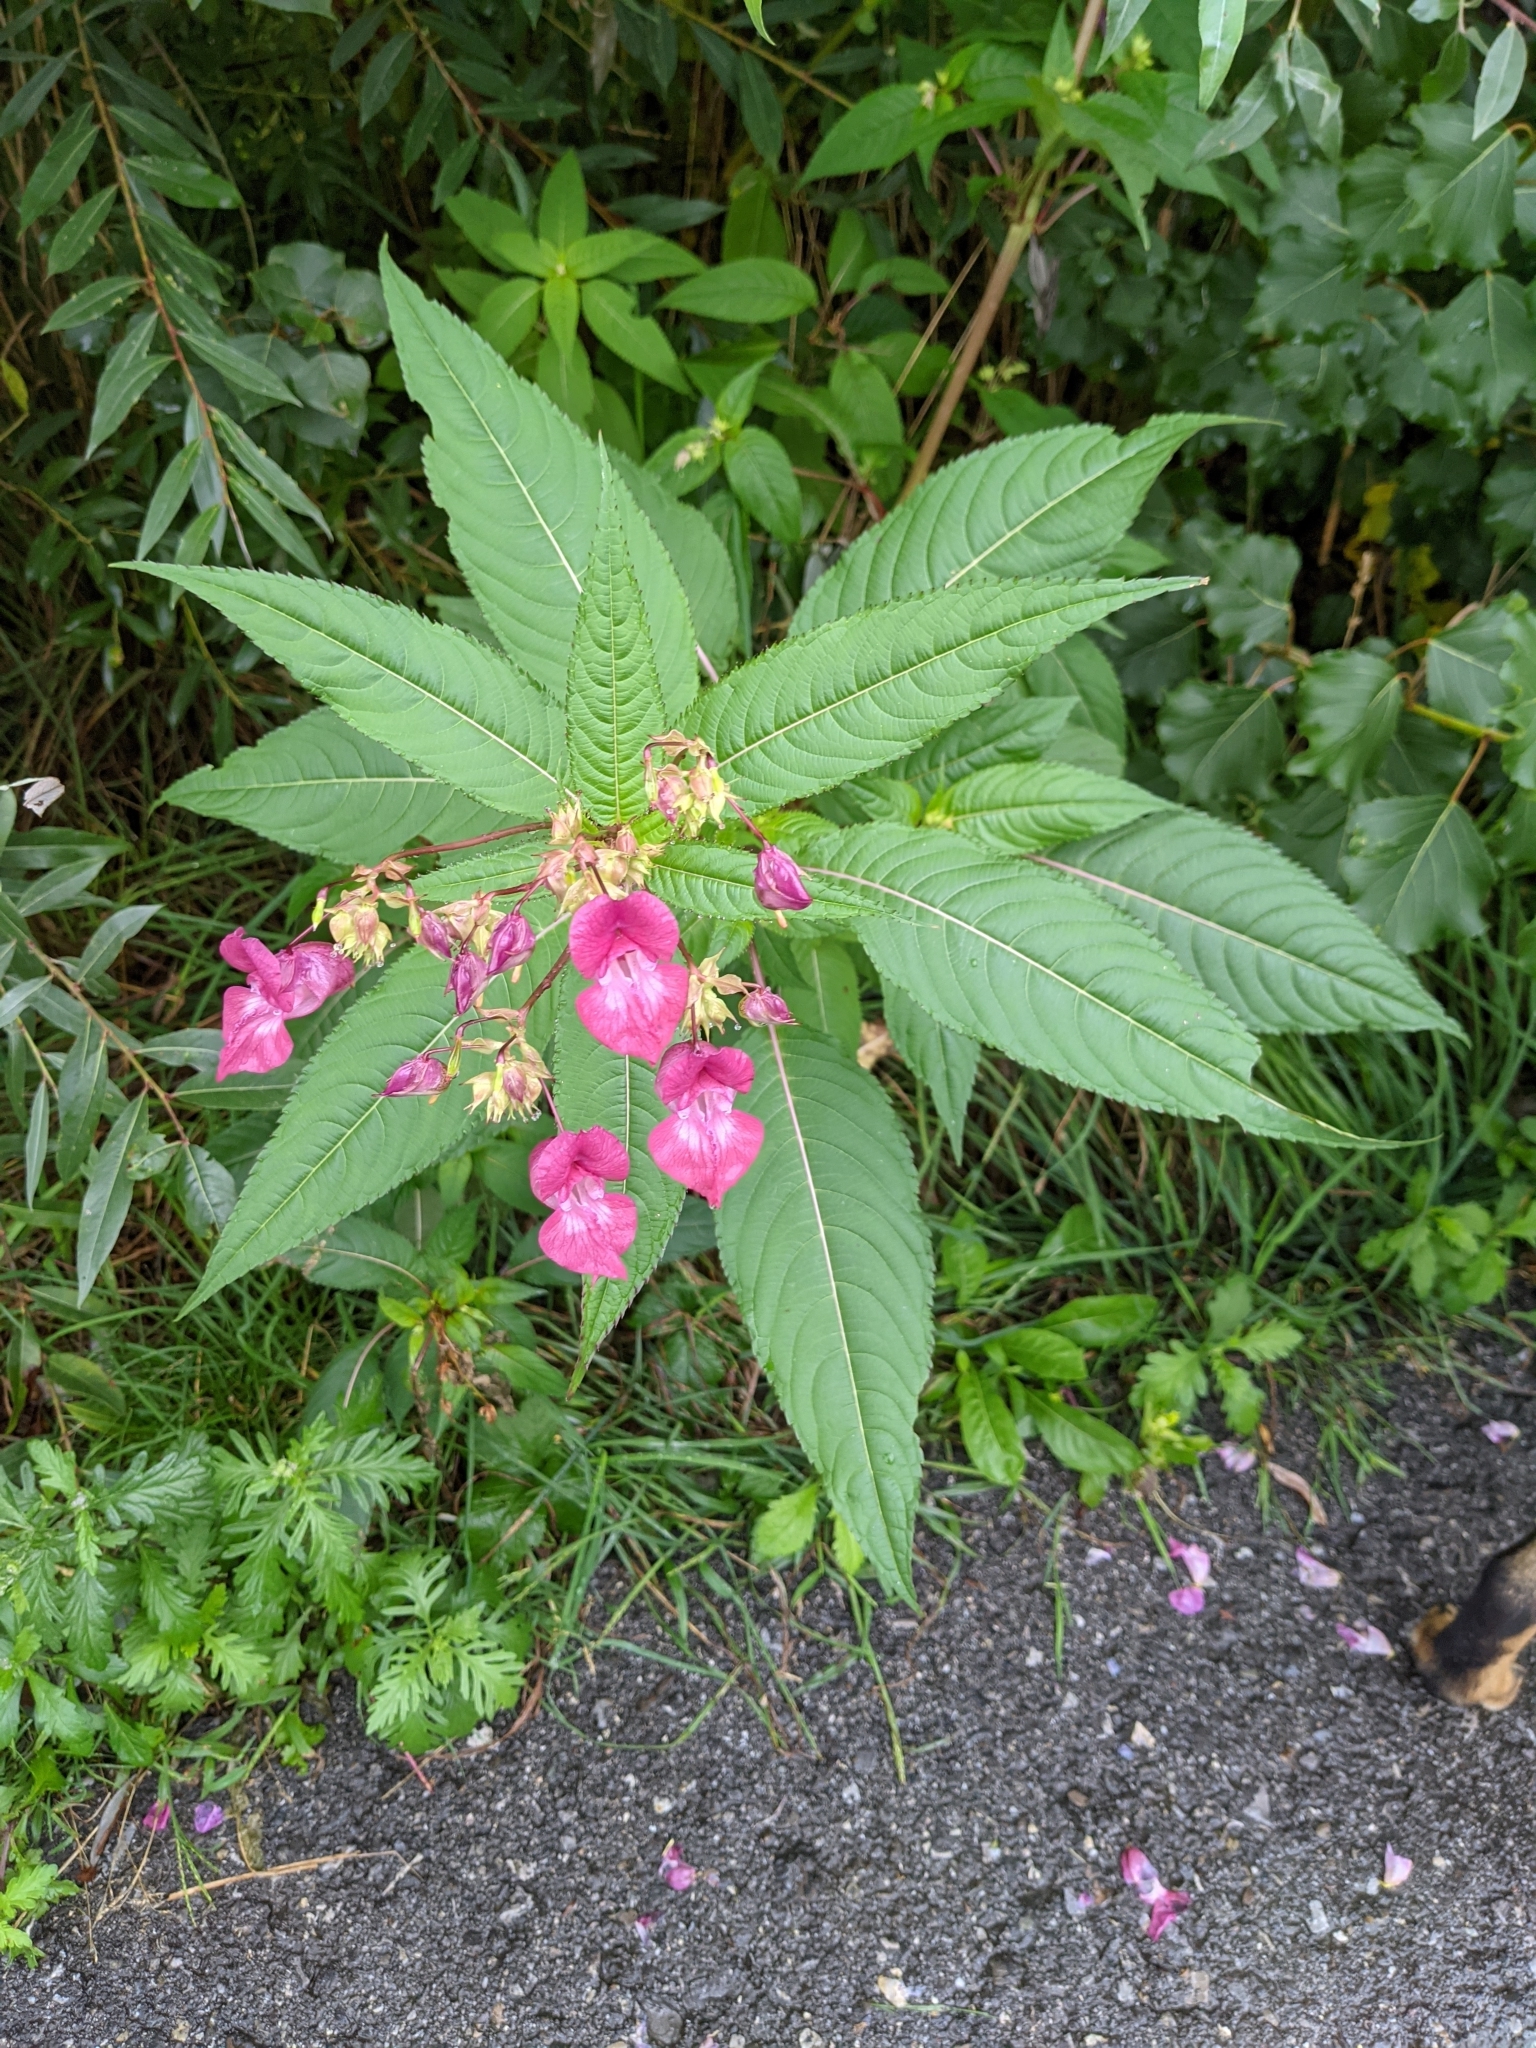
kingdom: Plantae
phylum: Tracheophyta
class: Magnoliopsida
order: Ericales
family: Balsaminaceae
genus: Impatiens
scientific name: Impatiens glandulifera
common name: Himalayan balsam
